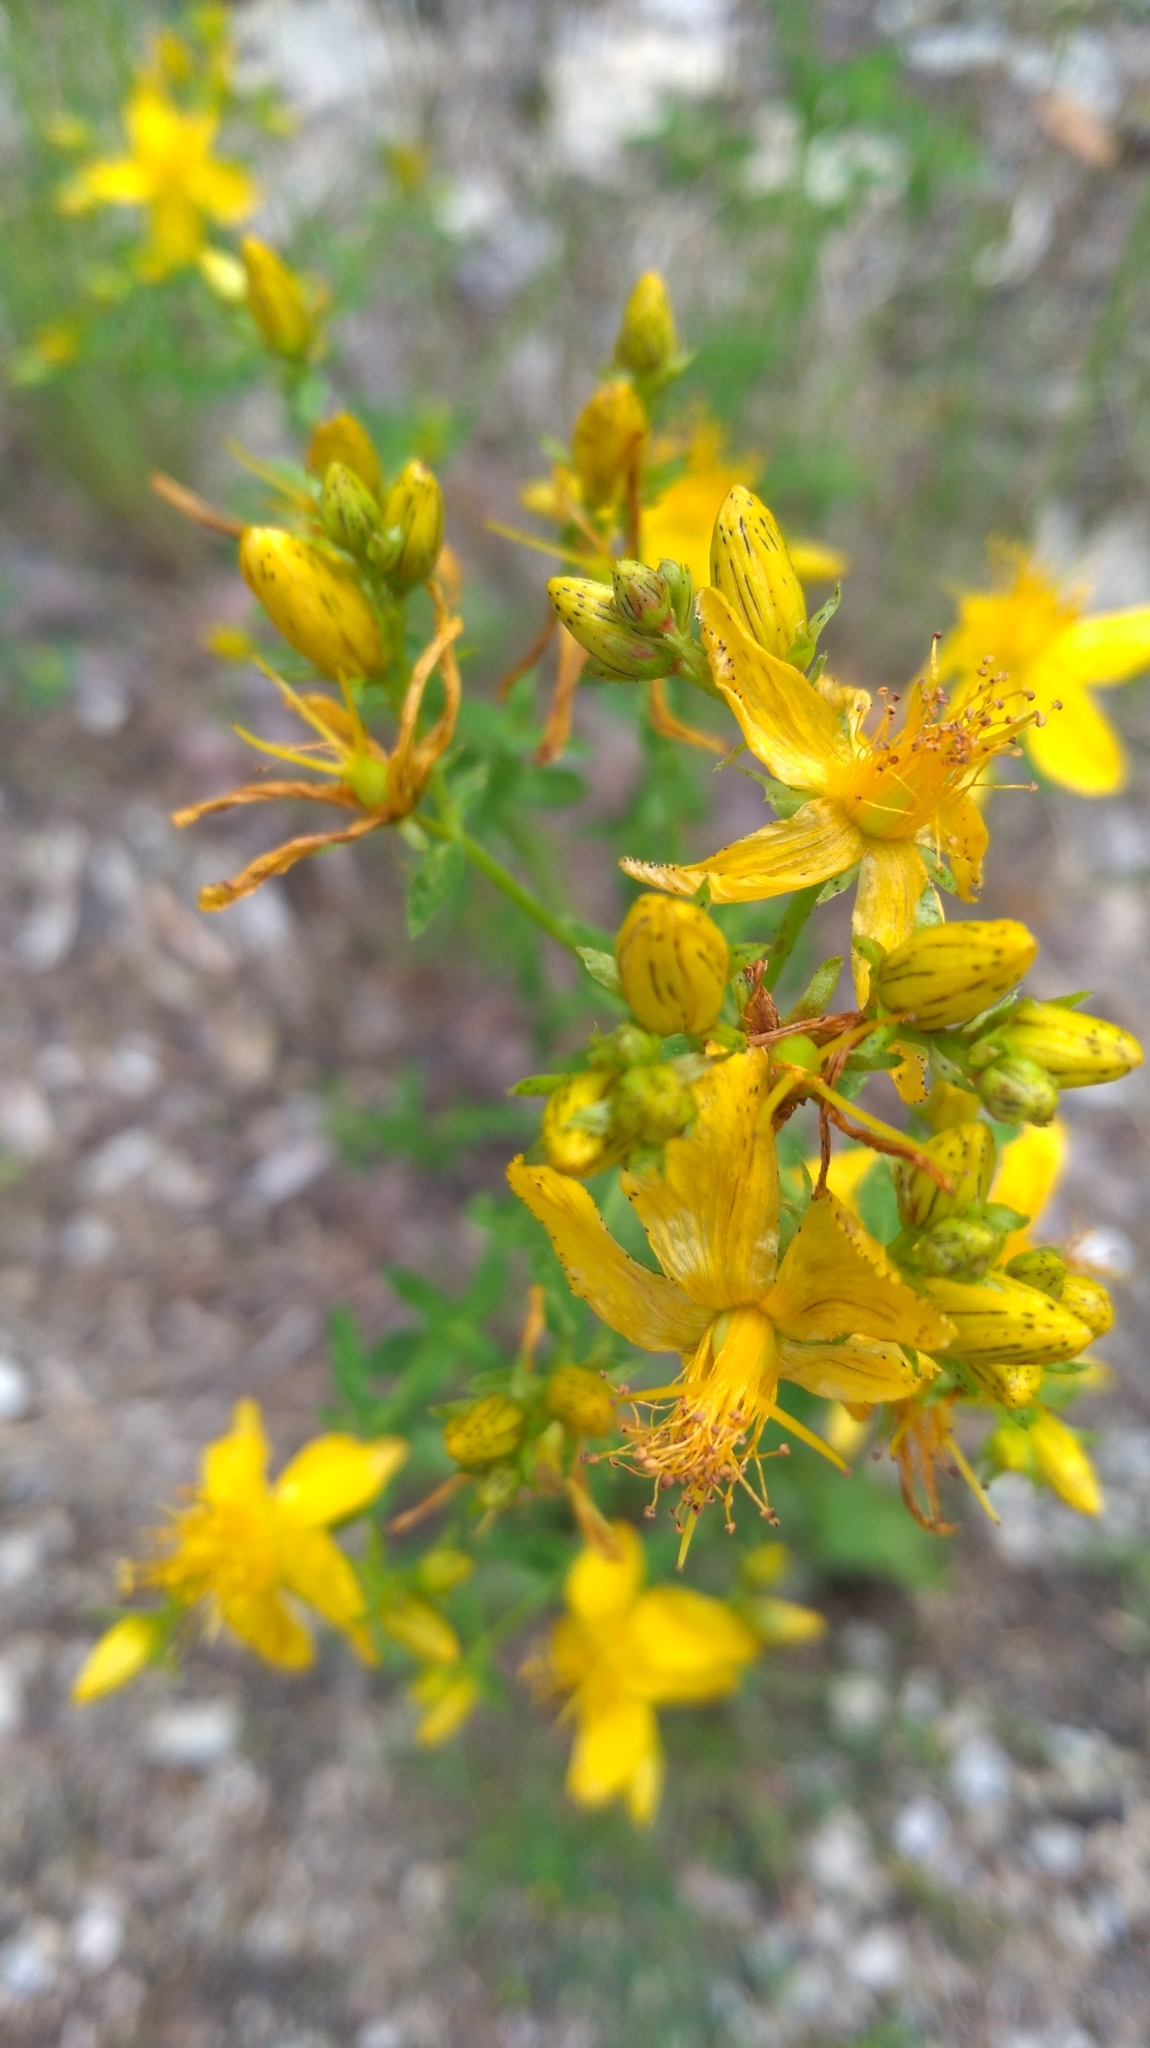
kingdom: Plantae
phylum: Tracheophyta
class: Magnoliopsida
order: Malpighiales
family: Hypericaceae
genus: Hypericum
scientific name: Hypericum perforatum
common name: Common st. johnswort
